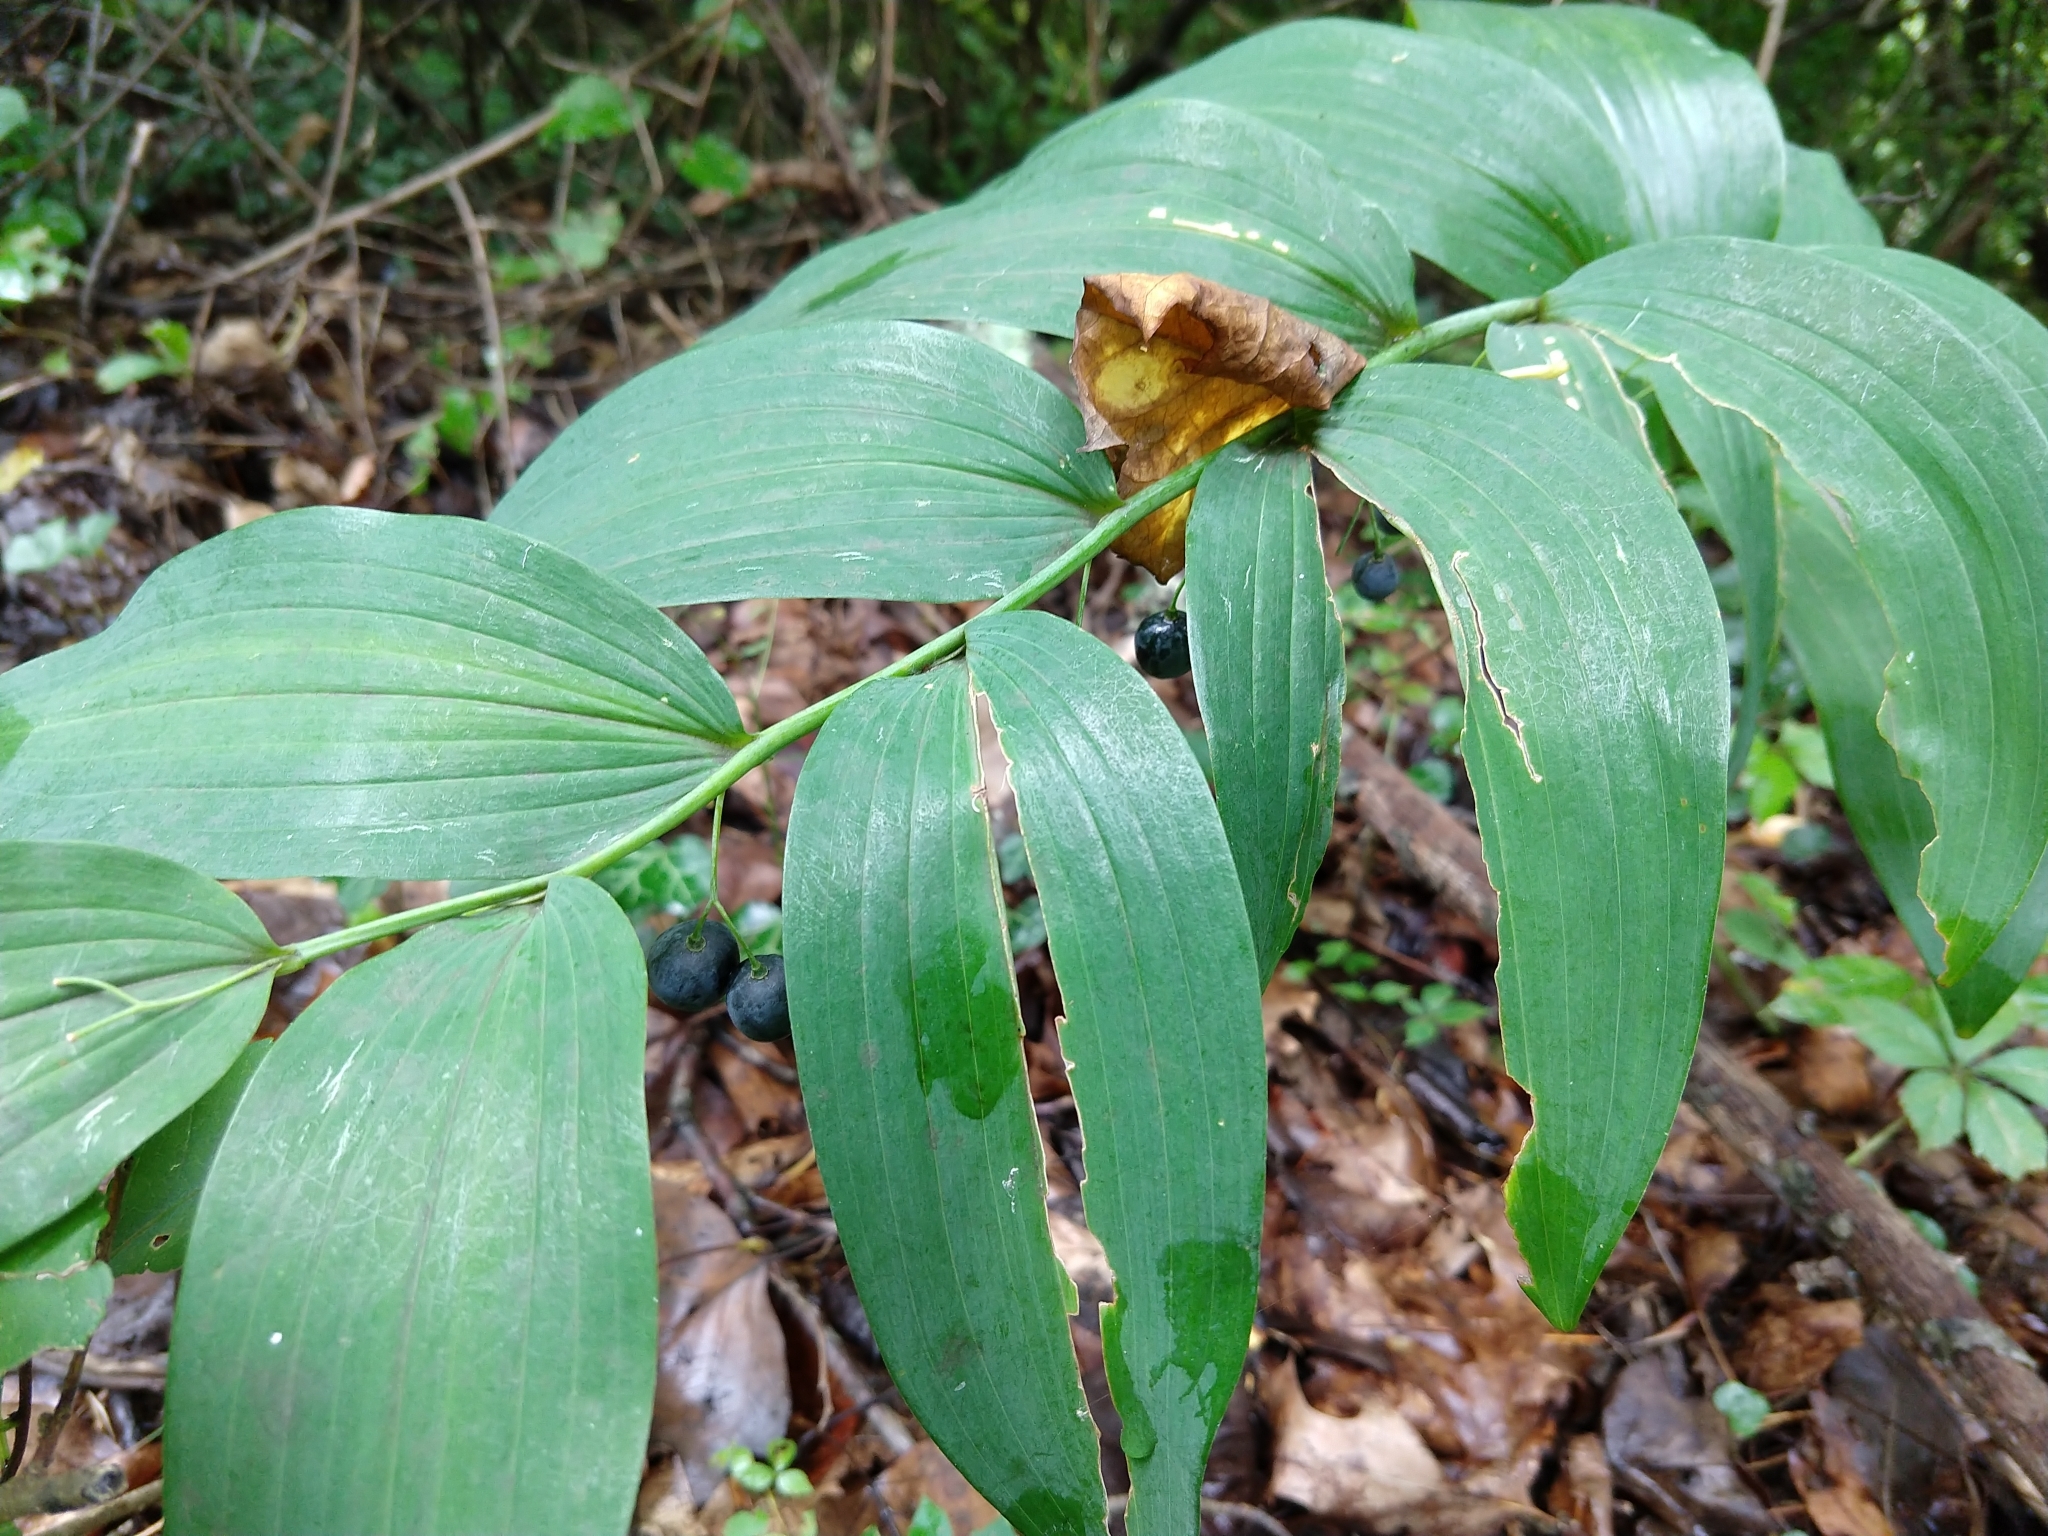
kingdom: Plantae
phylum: Tracheophyta
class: Liliopsida
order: Asparagales
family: Asparagaceae
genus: Polygonatum
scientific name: Polygonatum biflorum
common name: American solomon's-seal
